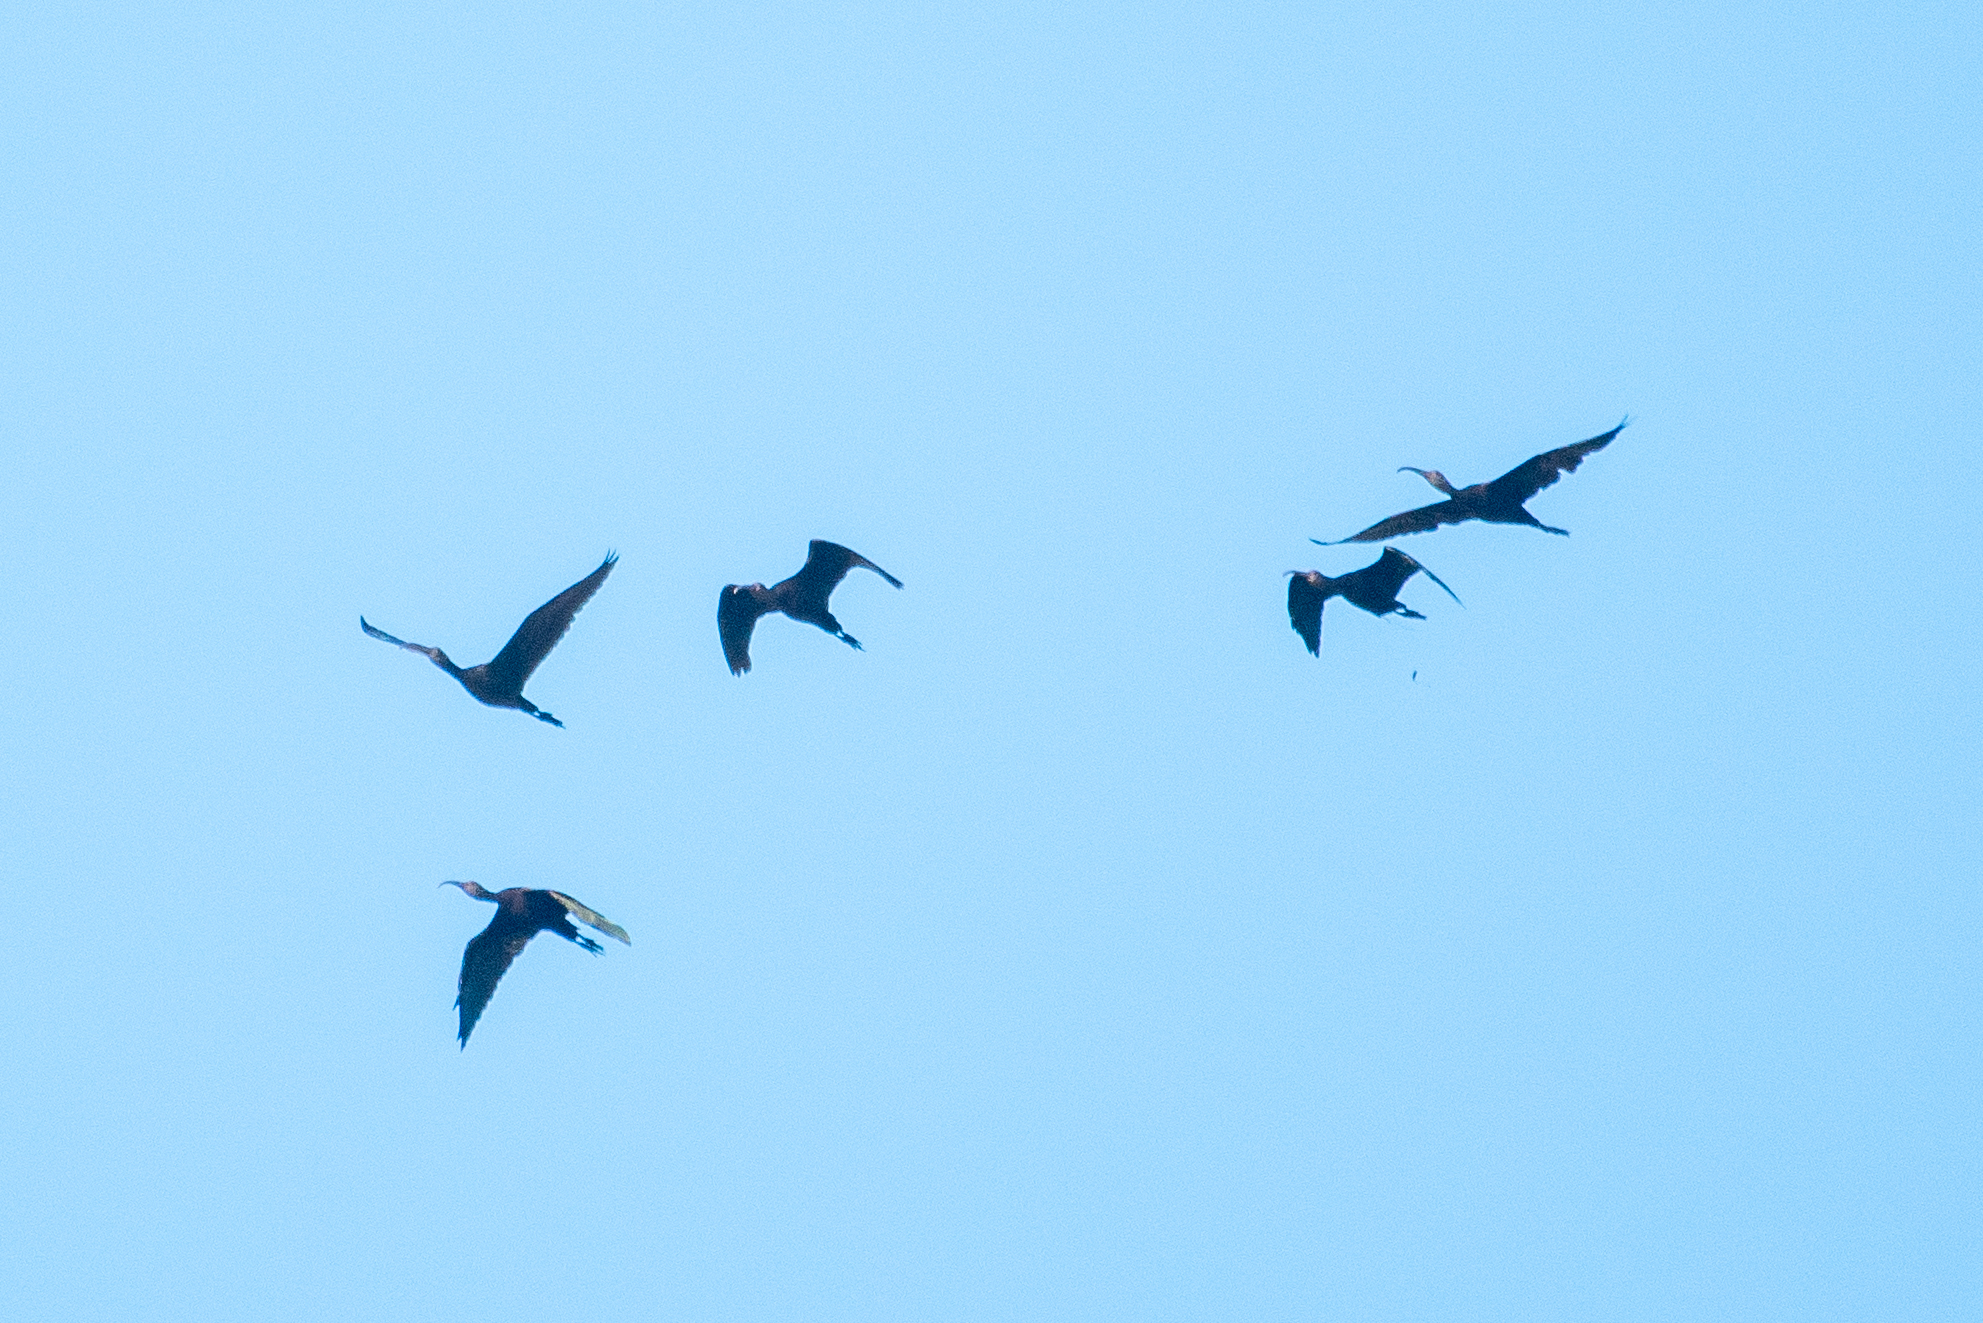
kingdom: Animalia
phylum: Chordata
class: Aves
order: Pelecaniformes
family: Threskiornithidae
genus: Plegadis
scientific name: Plegadis chihi
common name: White-faced ibis
